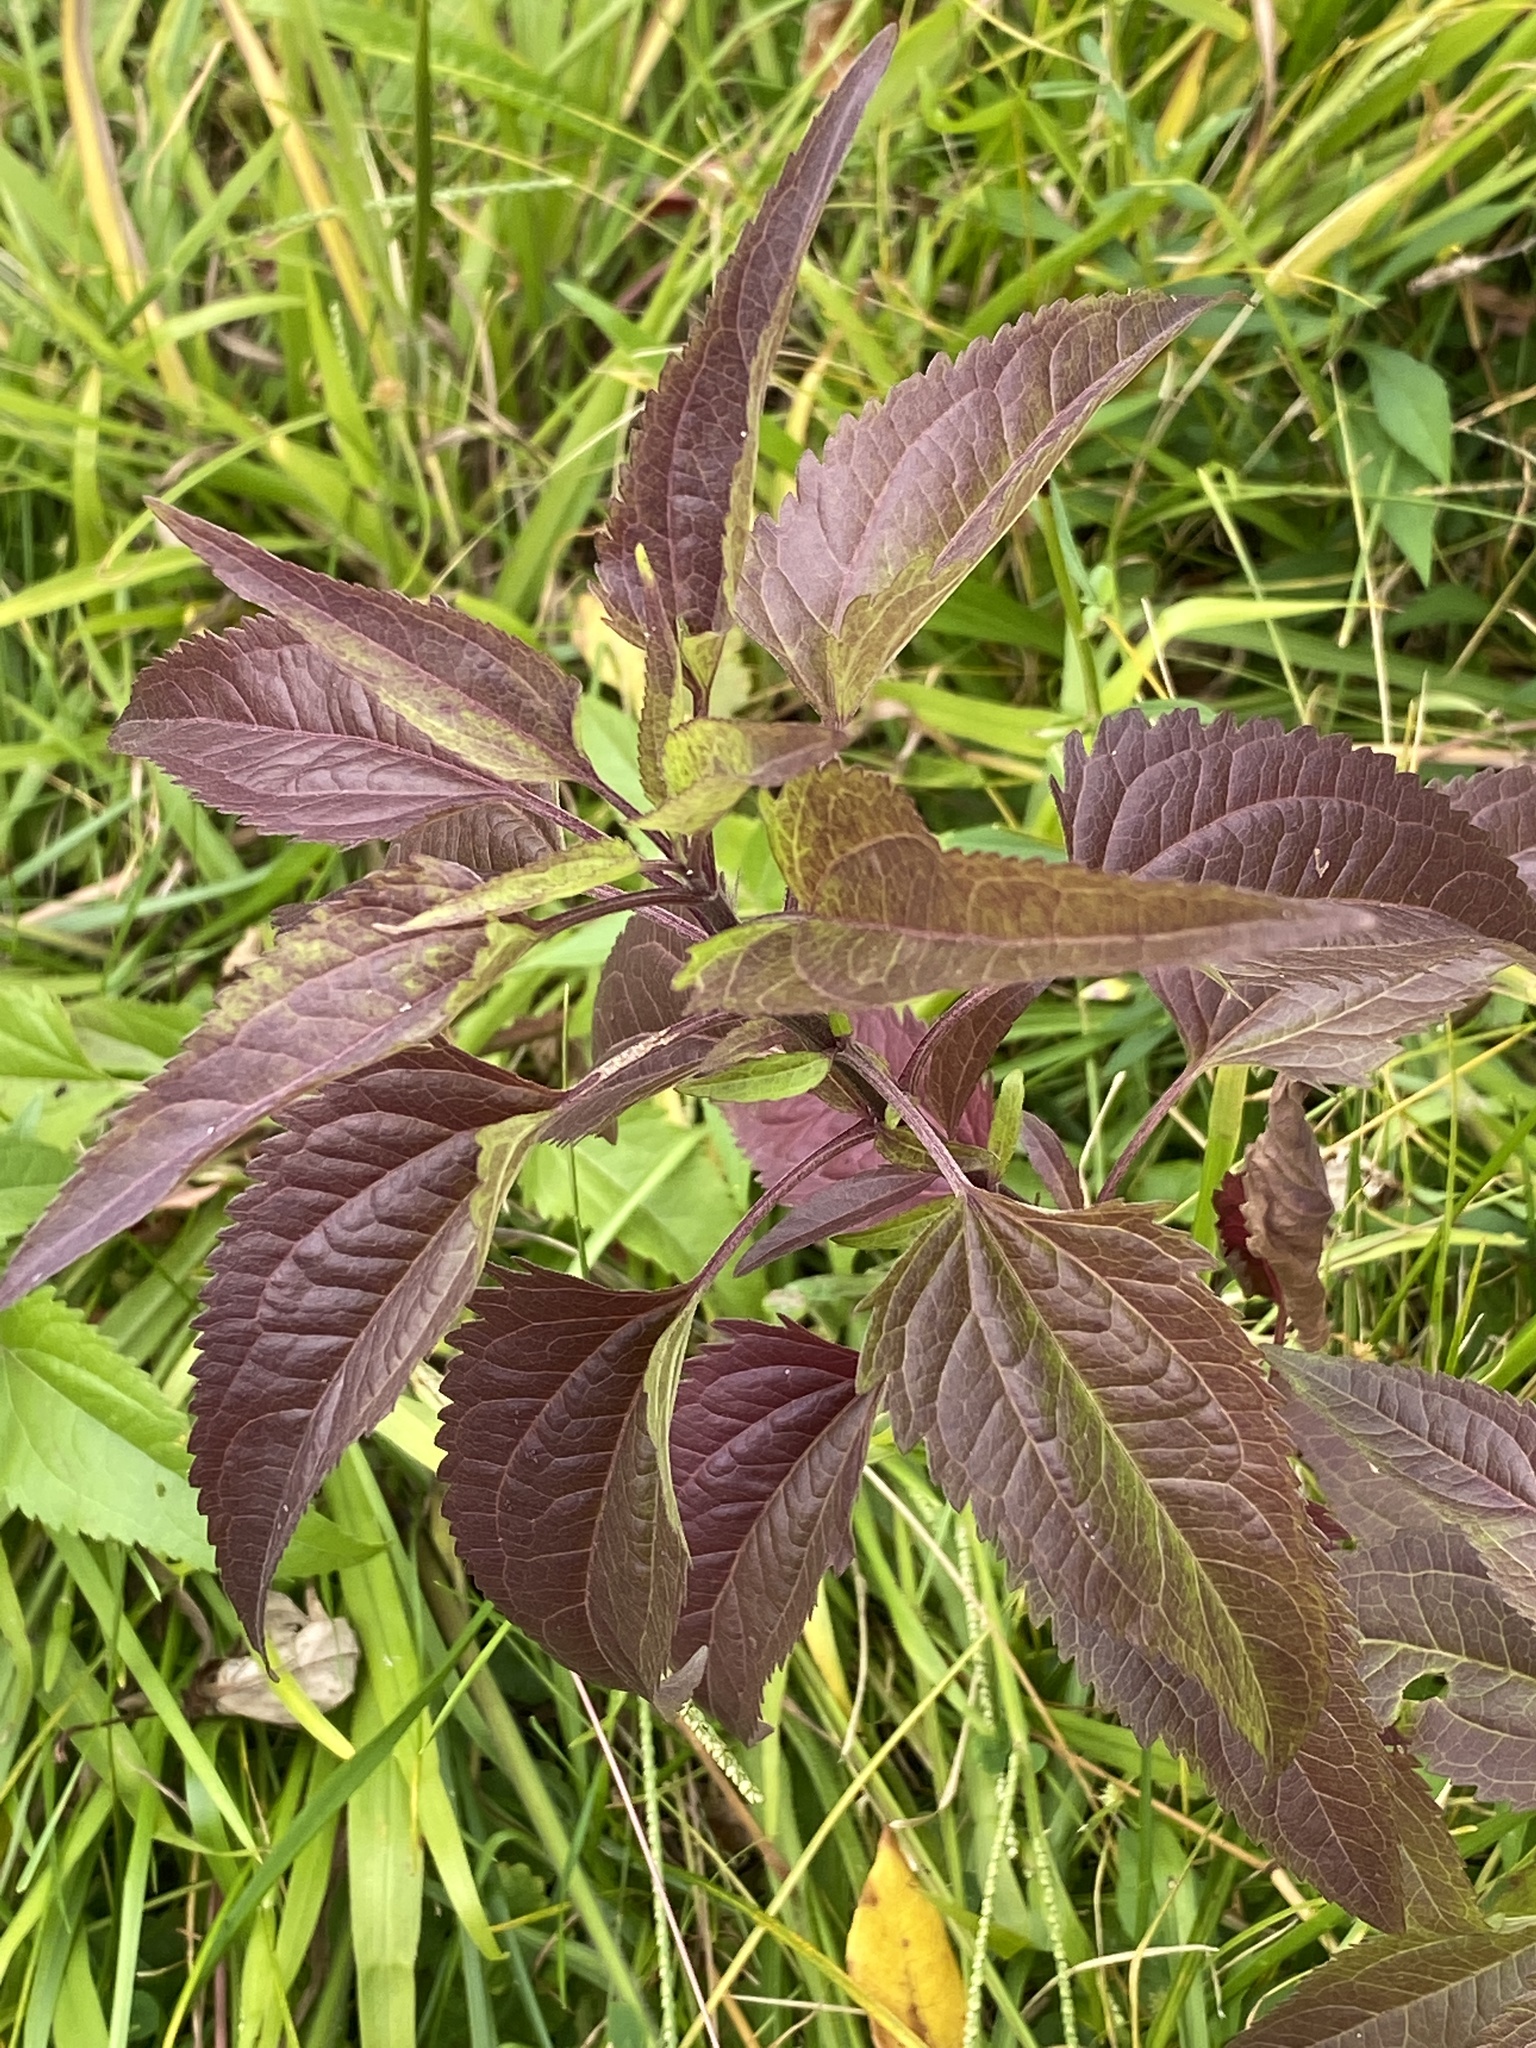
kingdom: Plantae
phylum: Tracheophyta
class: Magnoliopsida
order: Asterales
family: Asteraceae
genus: Eupatorium
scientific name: Eupatorium serotinum
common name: Late boneset
